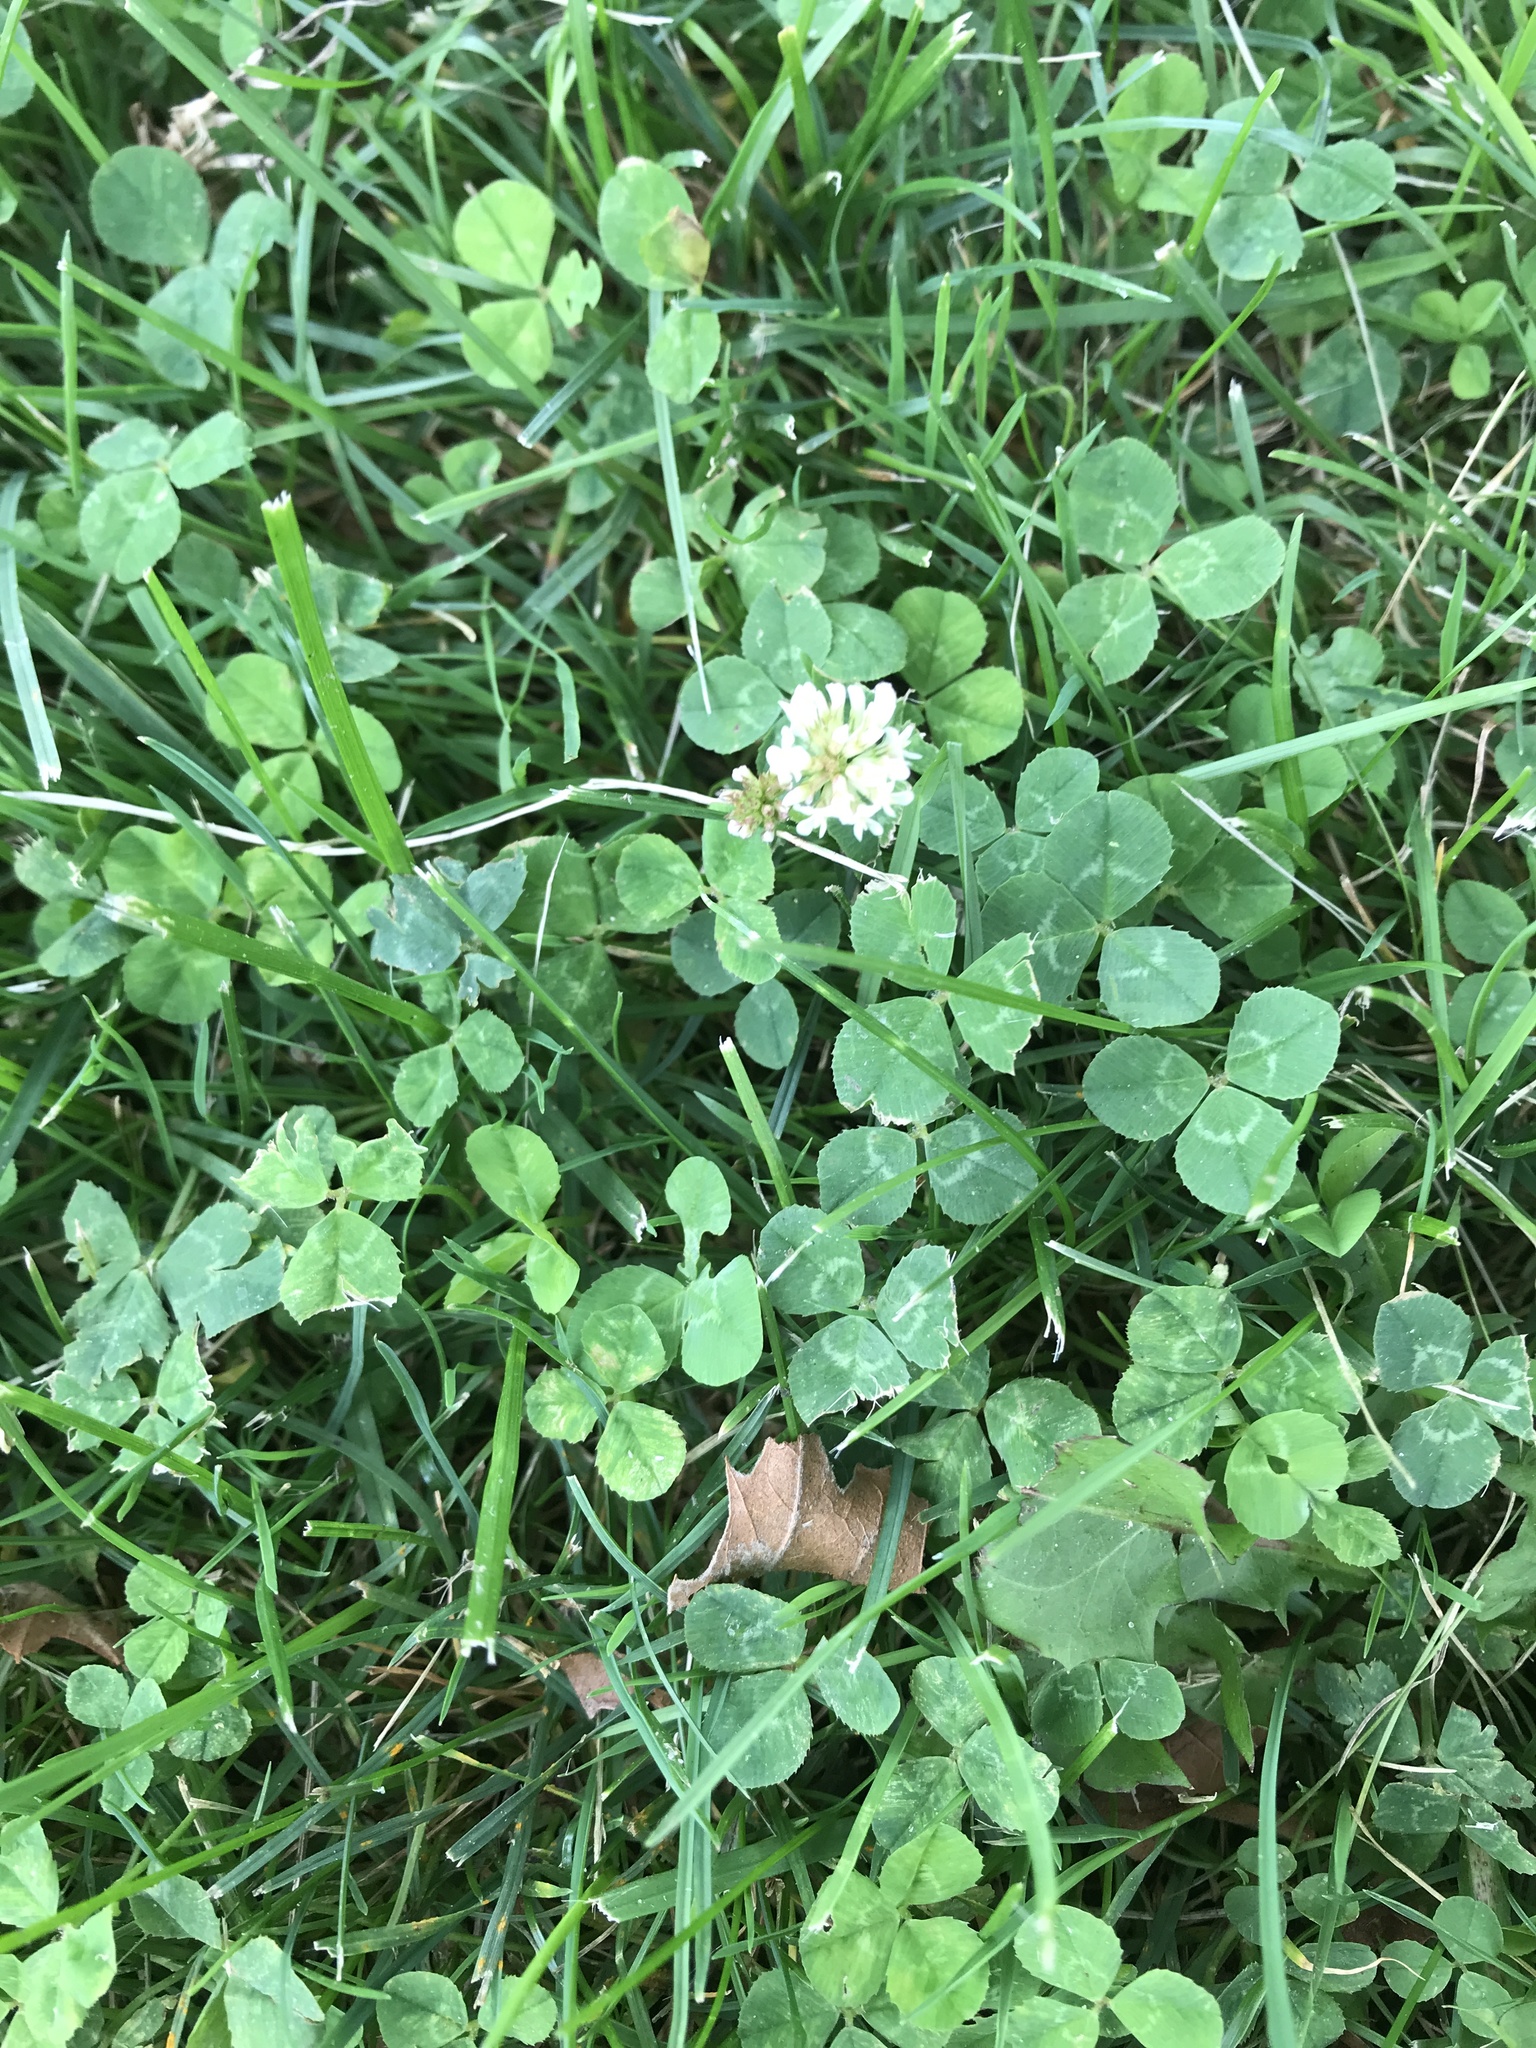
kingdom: Plantae
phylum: Tracheophyta
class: Magnoliopsida
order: Fabales
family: Fabaceae
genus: Trifolium
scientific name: Trifolium repens
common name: White clover
